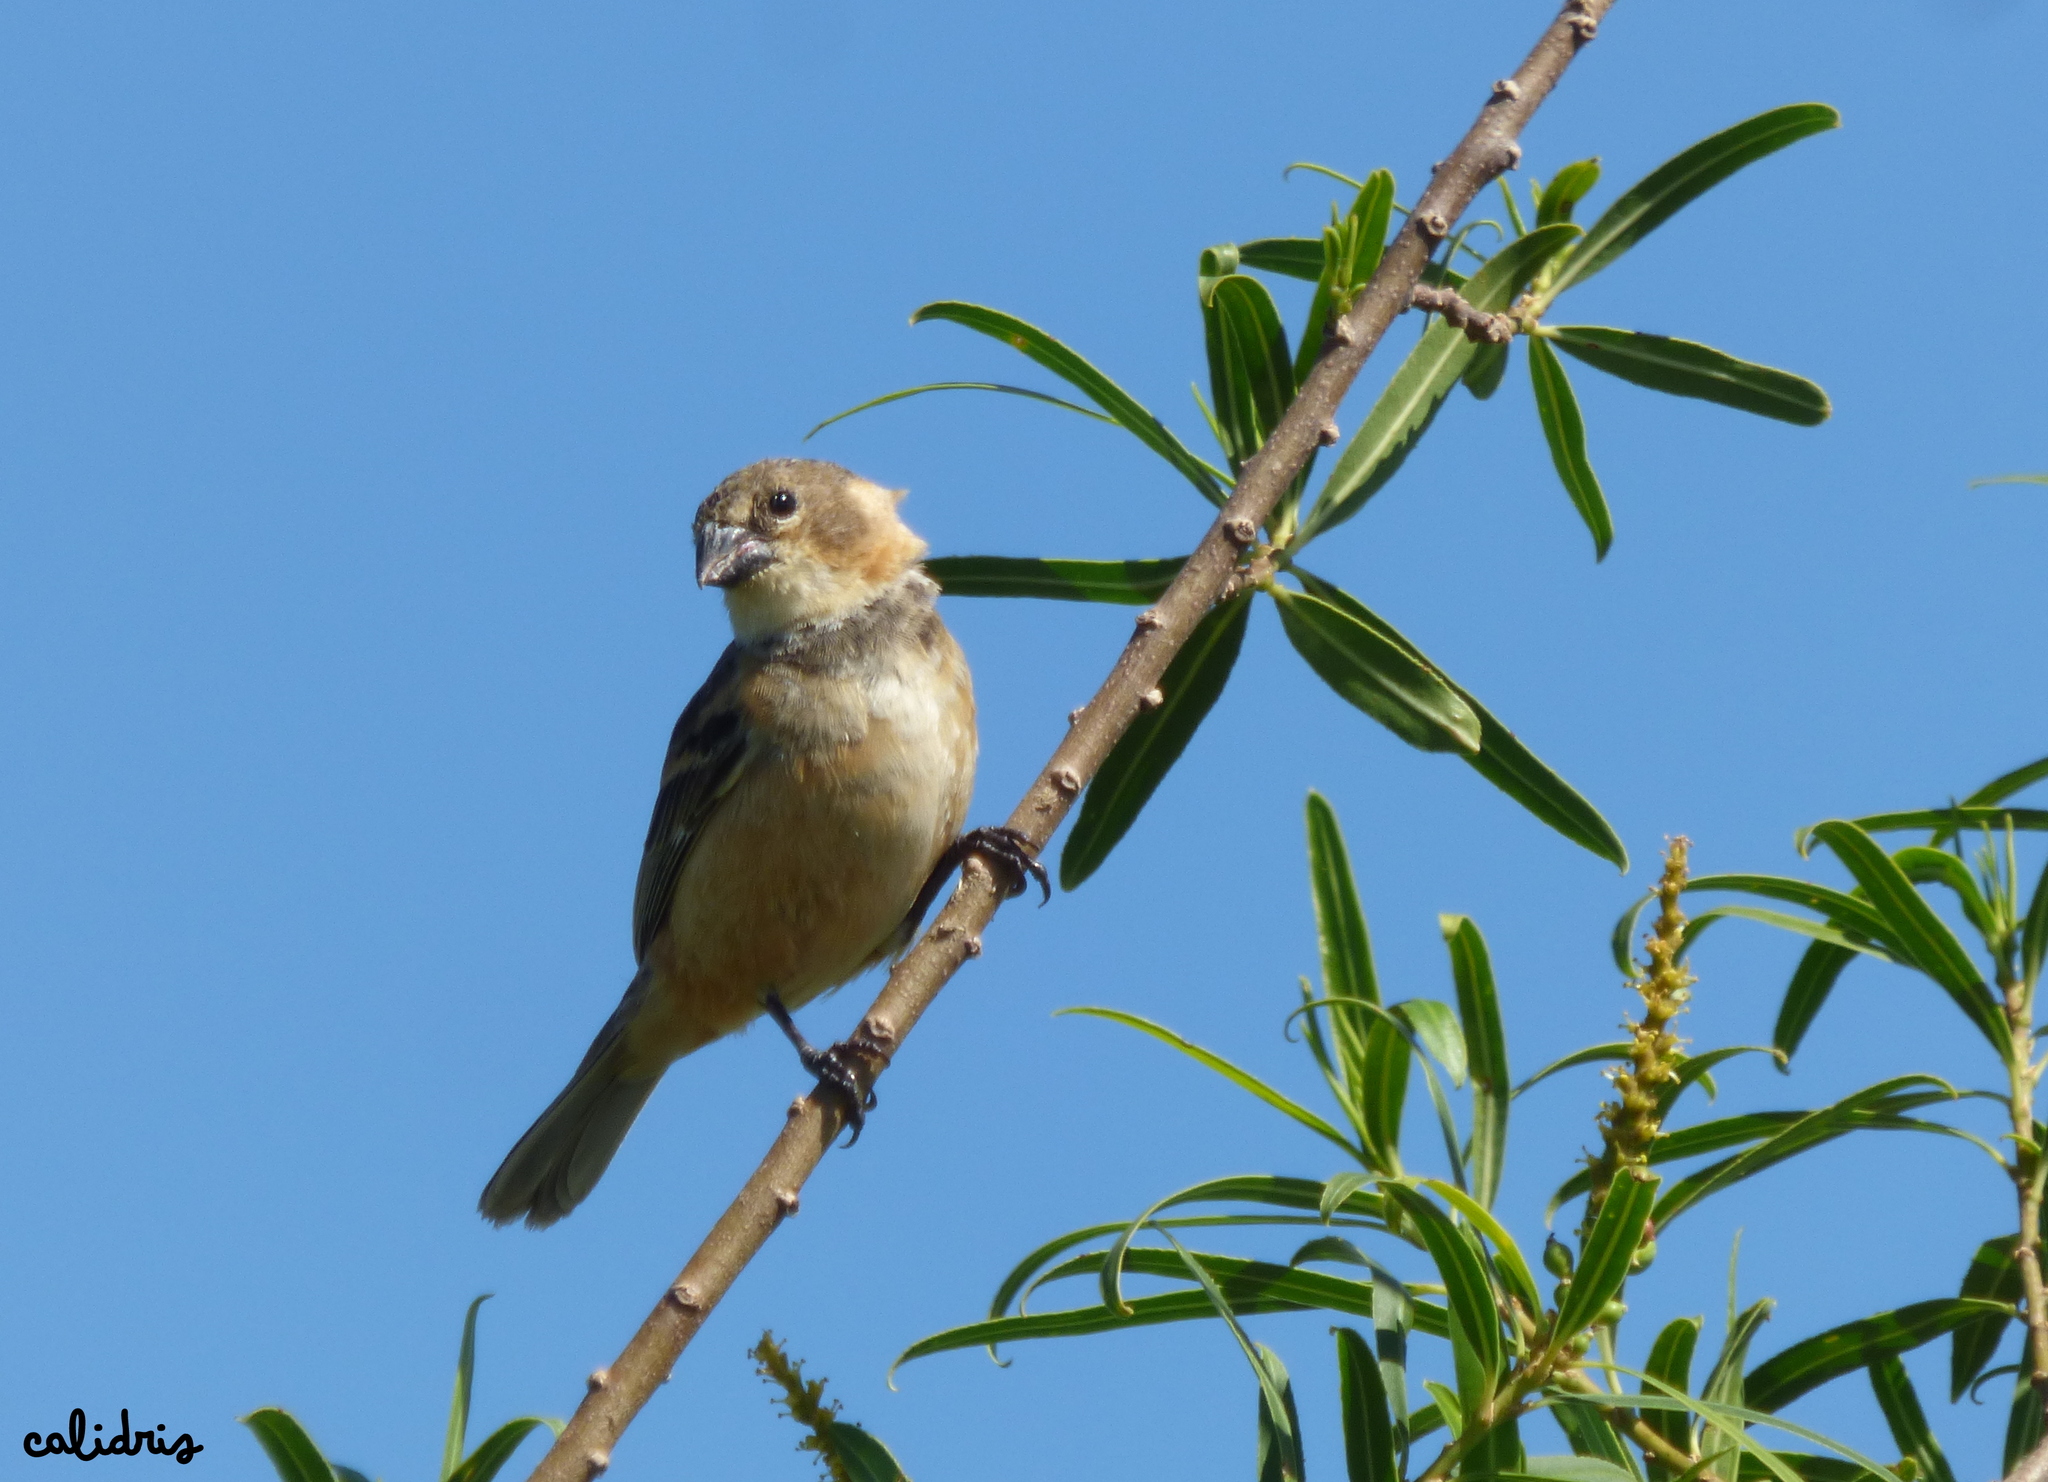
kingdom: Animalia
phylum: Chordata
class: Aves
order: Passeriformes
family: Thraupidae
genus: Sporophila
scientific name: Sporophila collaris
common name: Rusty-collared seedeater
